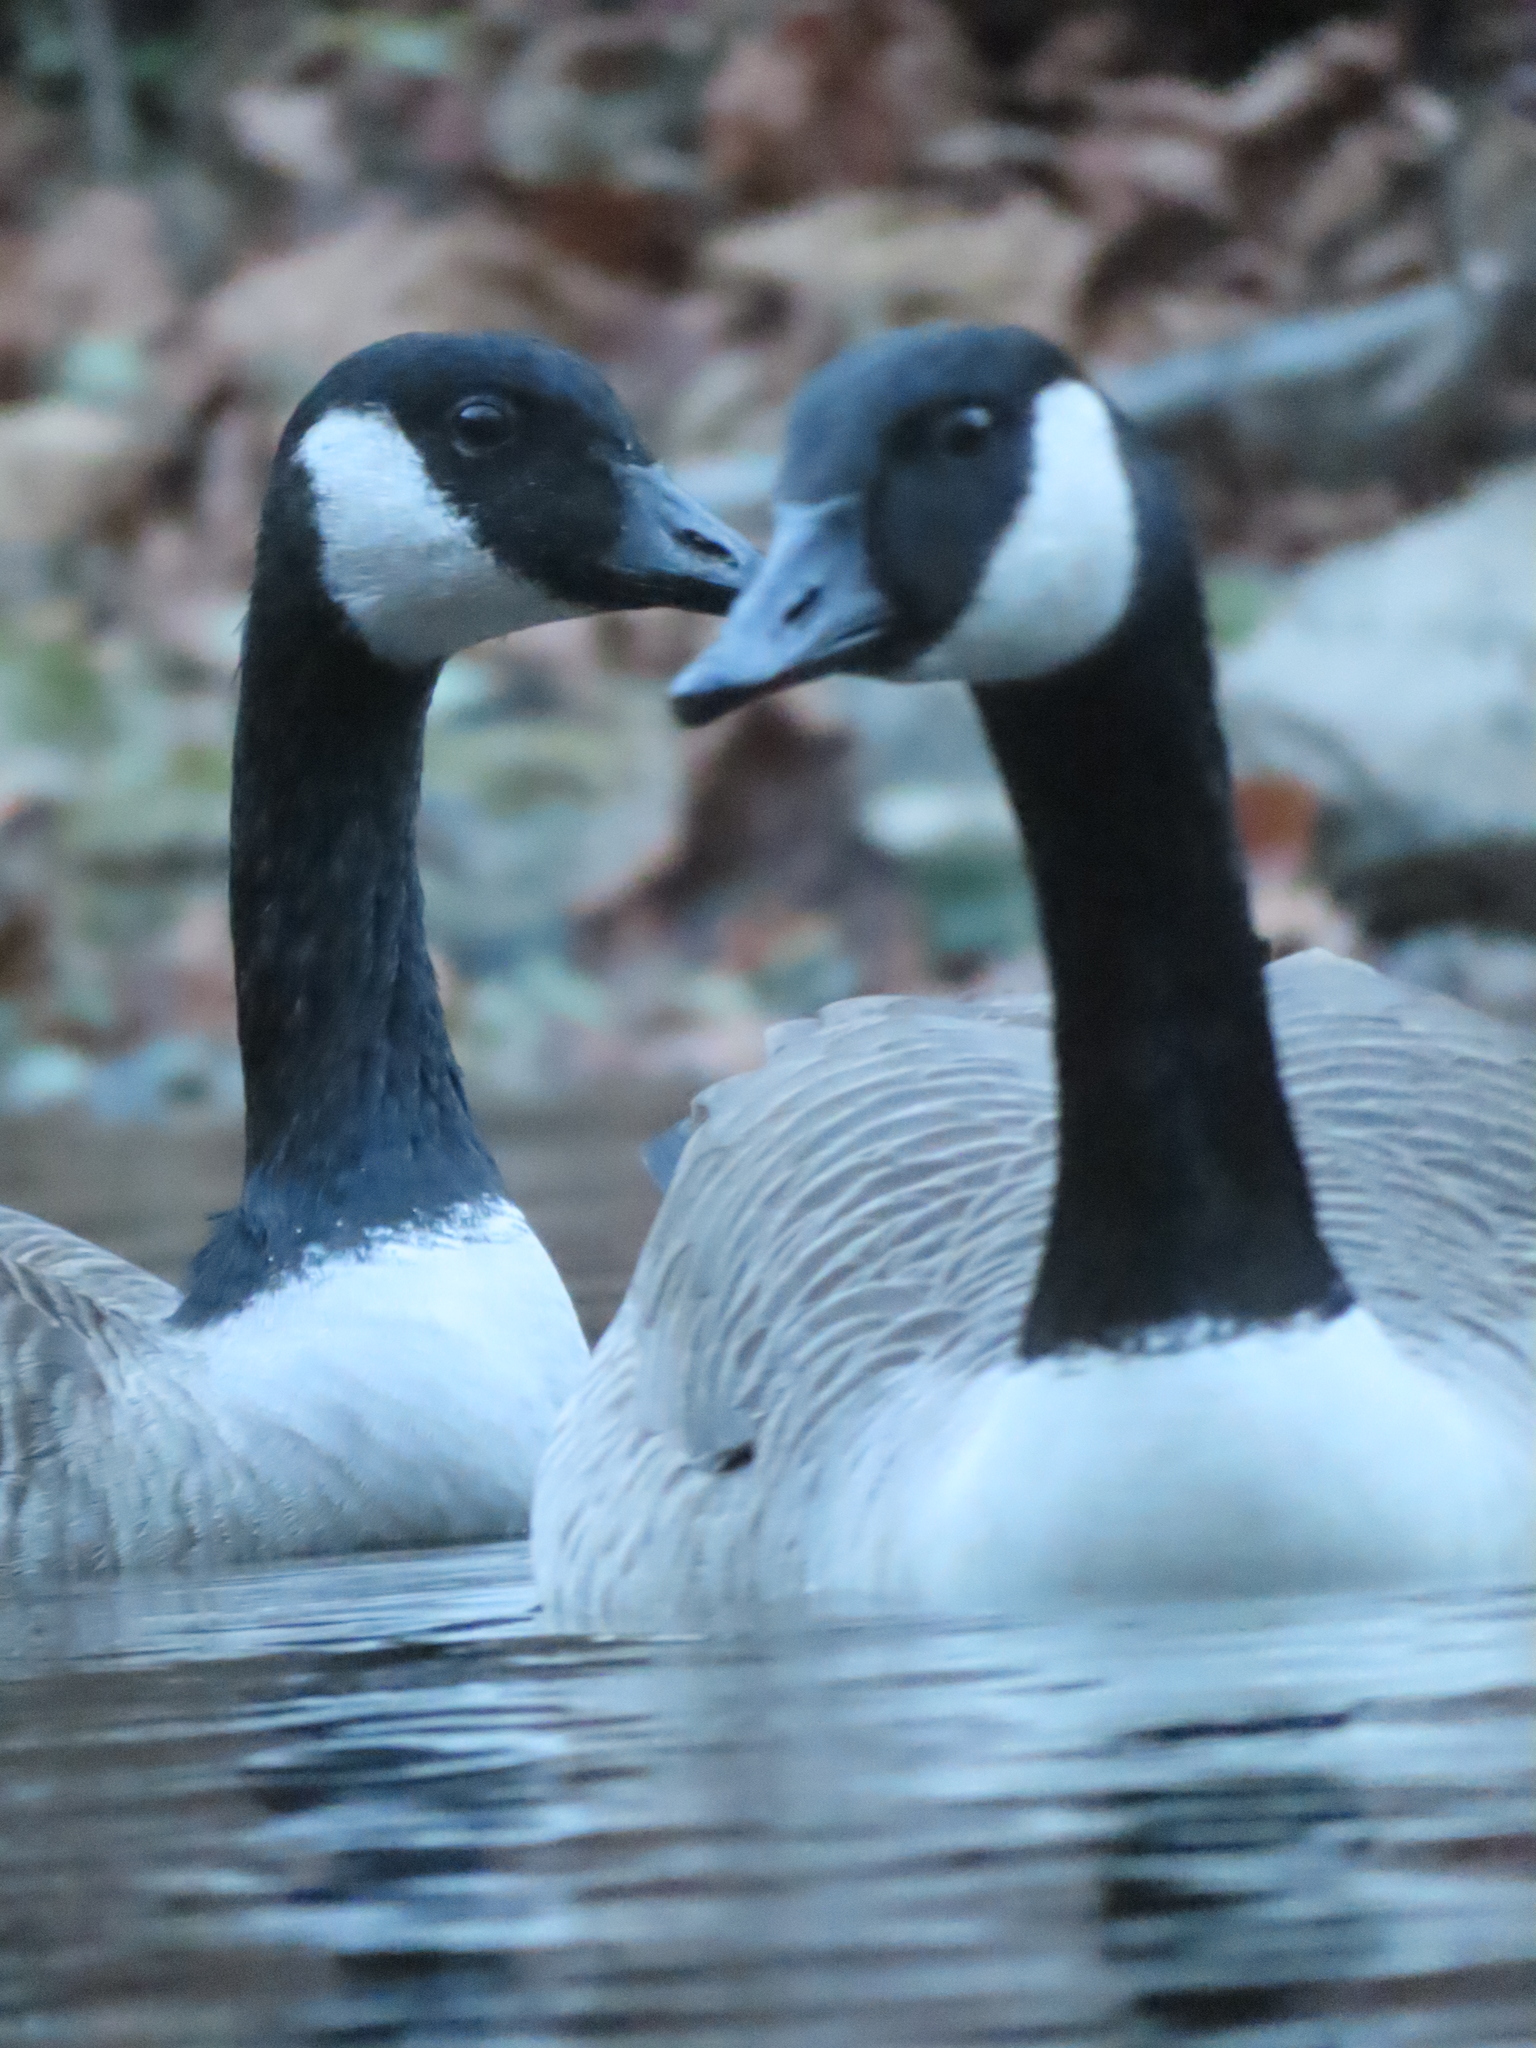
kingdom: Animalia
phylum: Chordata
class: Aves
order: Anseriformes
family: Anatidae
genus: Branta
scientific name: Branta canadensis
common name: Canada goose
